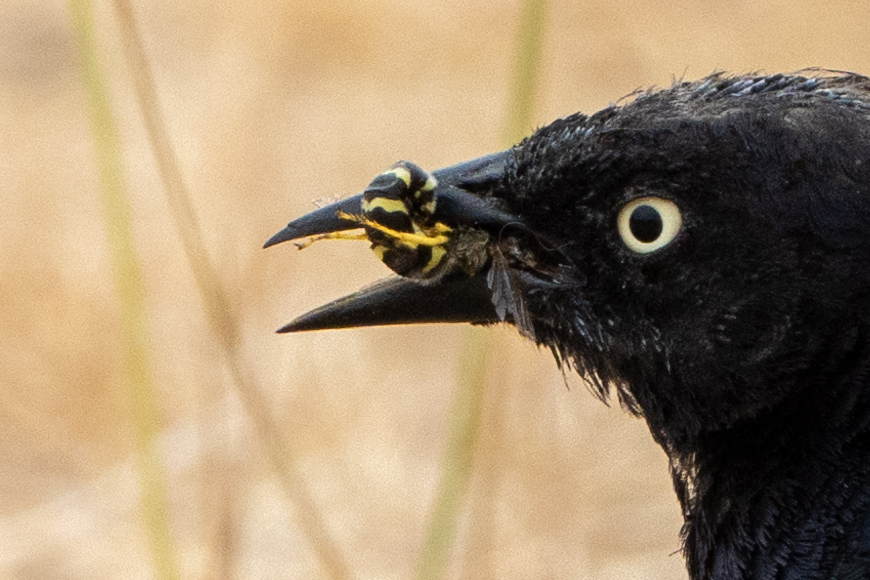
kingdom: Animalia
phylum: Arthropoda
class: Insecta
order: Hymenoptera
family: Crabronidae
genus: Bembix
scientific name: Bembix americana
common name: American sand wasp
